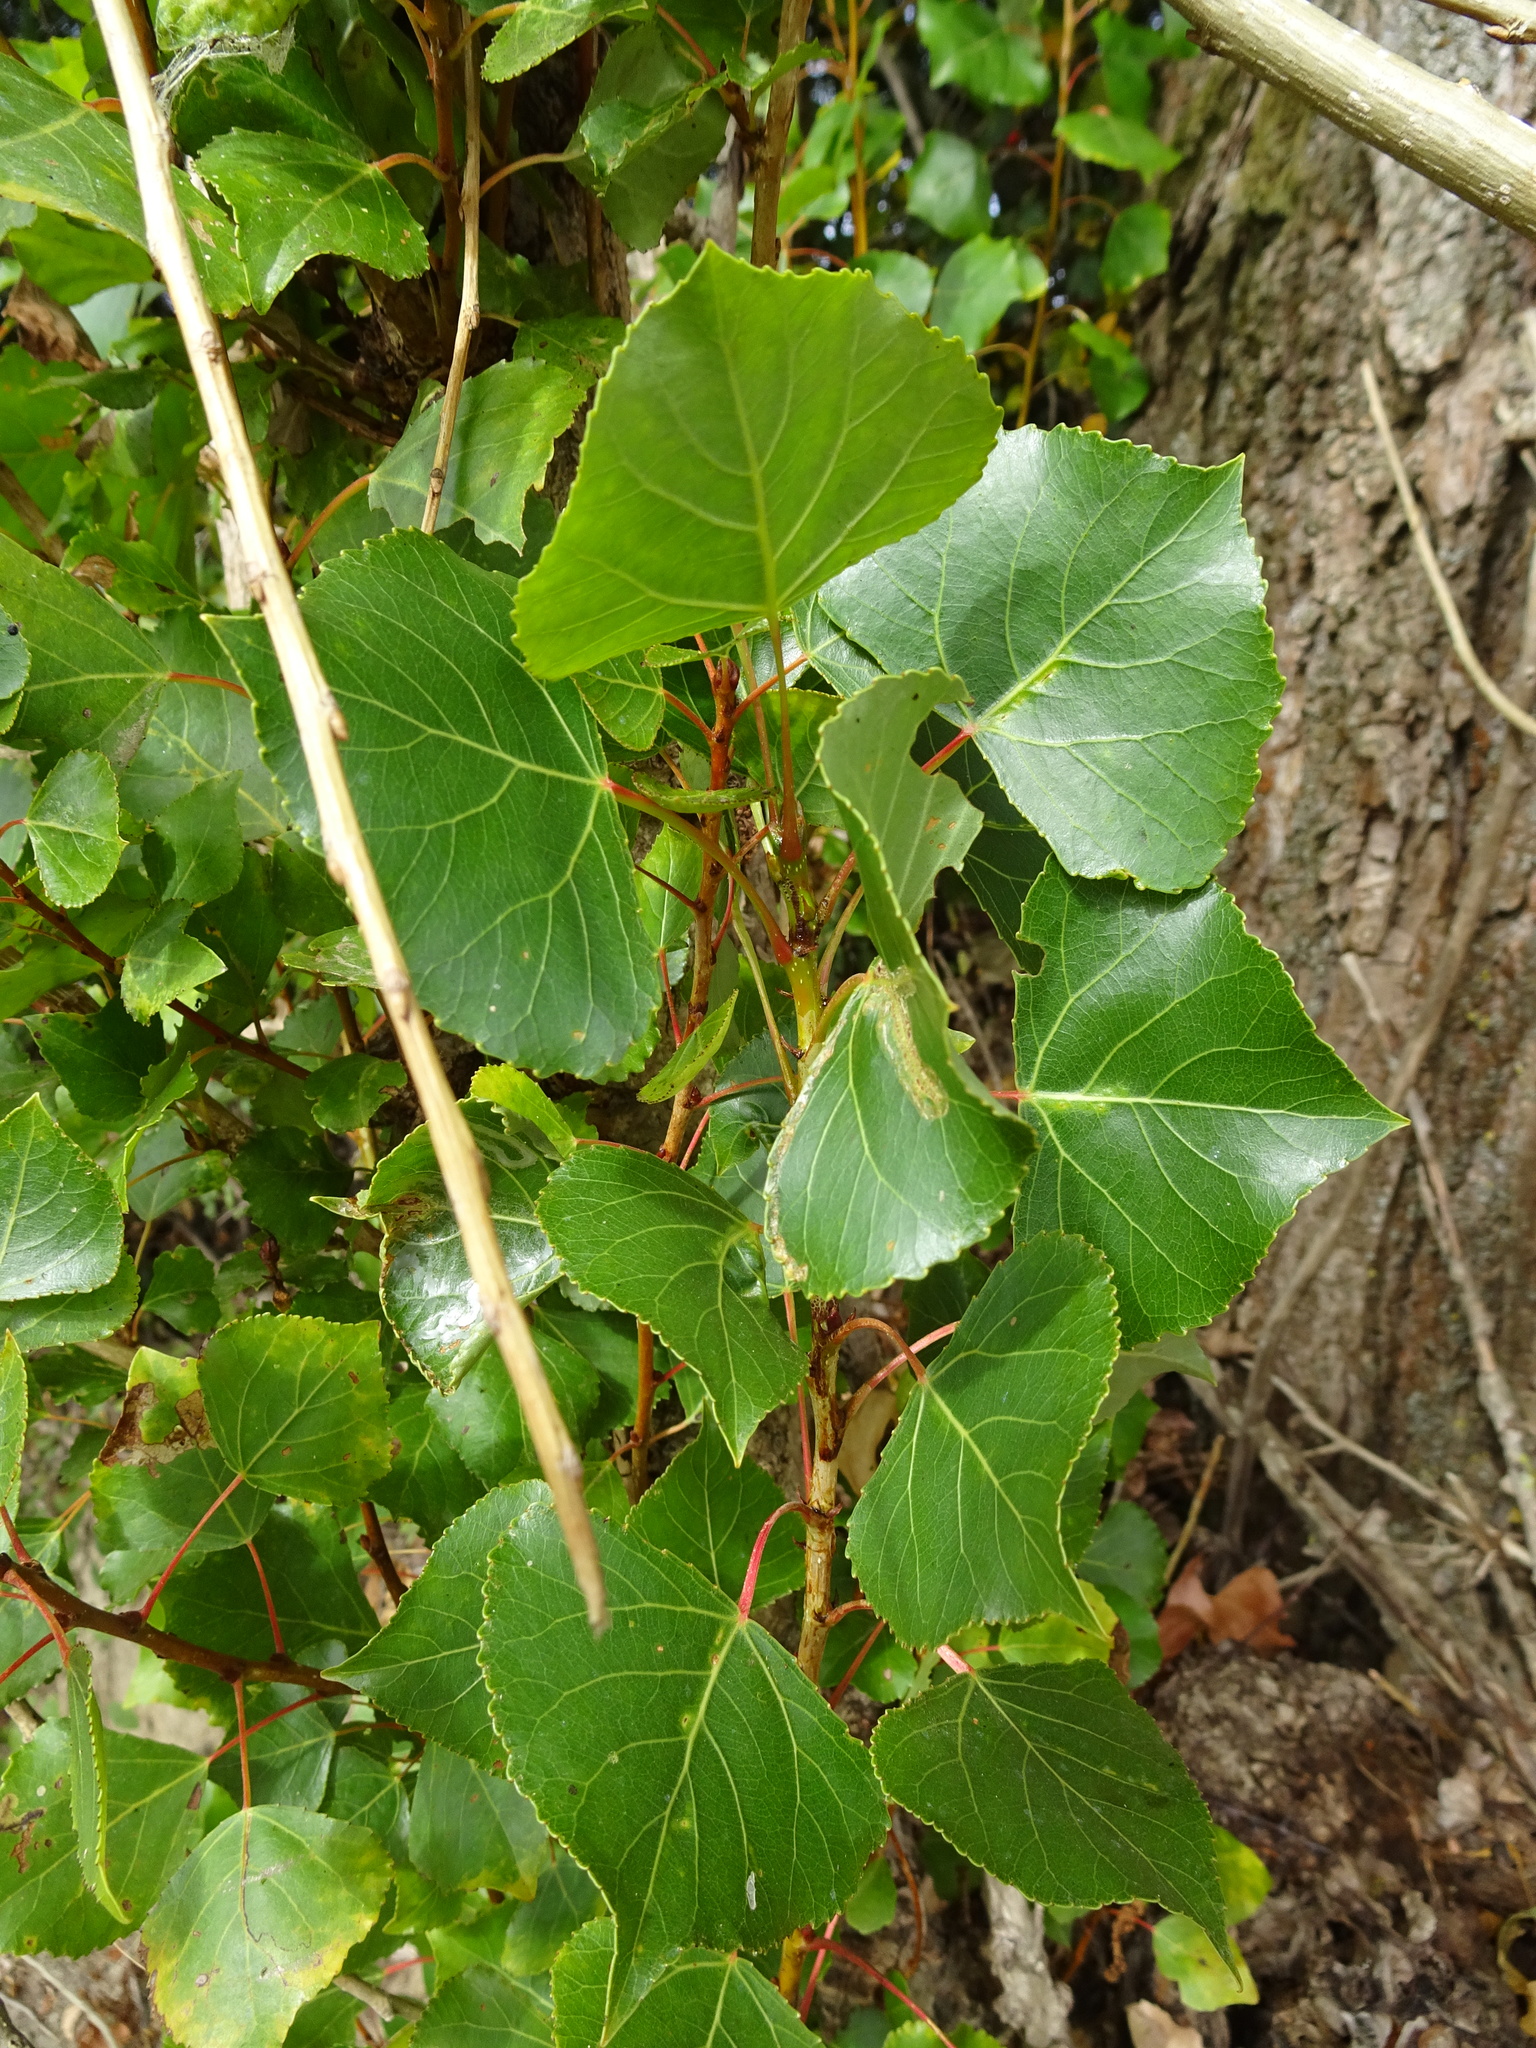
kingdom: Plantae
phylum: Tracheophyta
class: Magnoliopsida
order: Malpighiales
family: Salicaceae
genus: Populus
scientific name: Populus nigra
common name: Black poplar
